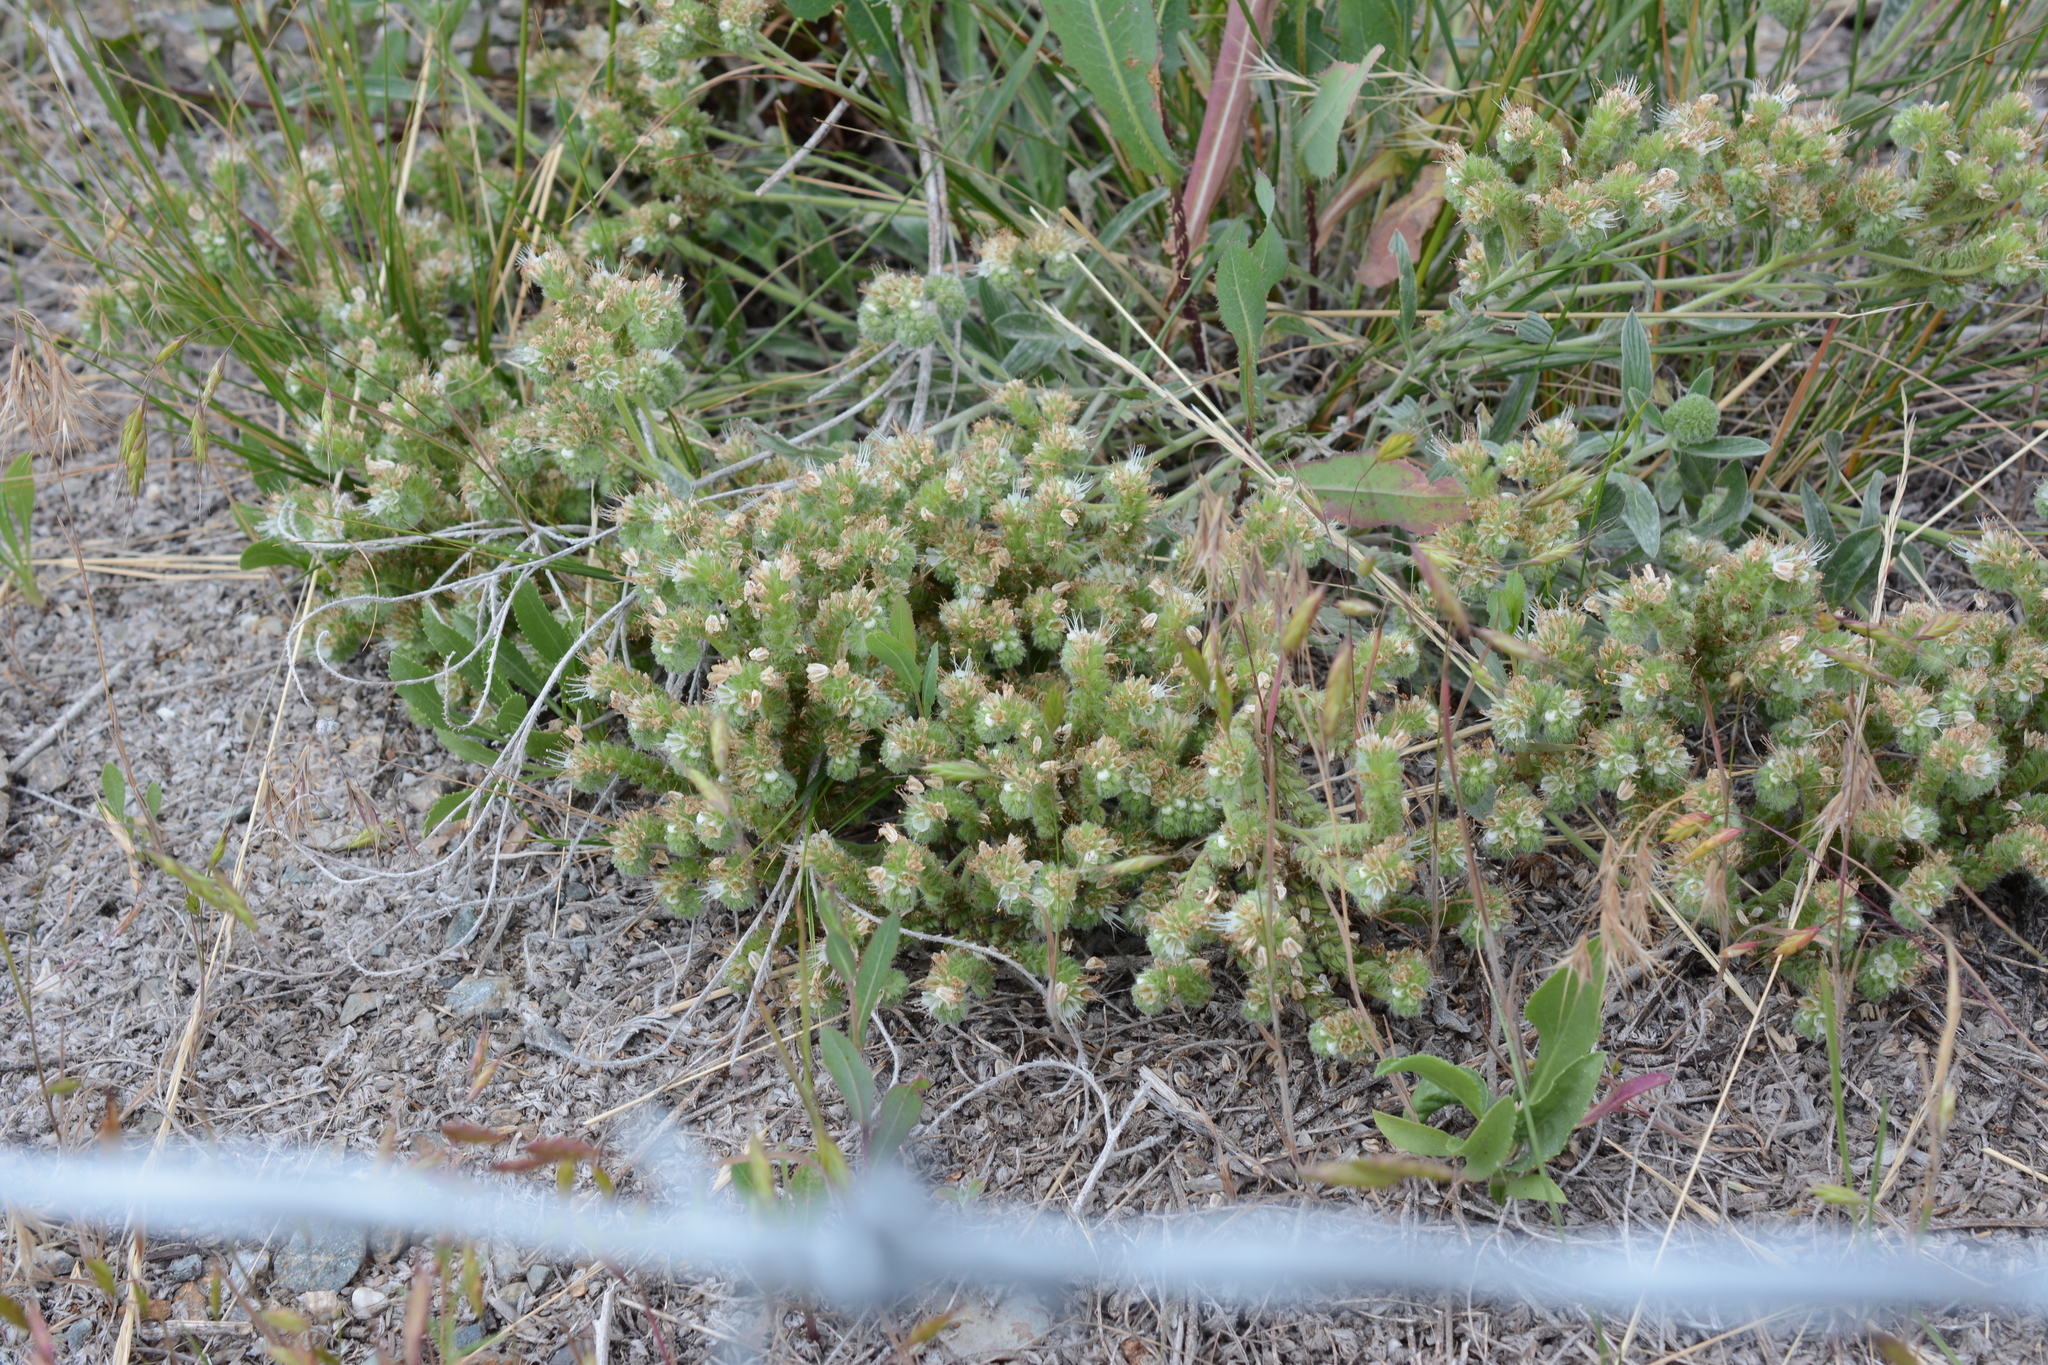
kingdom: Plantae
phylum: Tracheophyta
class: Magnoliopsida
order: Boraginales
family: Hydrophyllaceae
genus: Phacelia
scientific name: Phacelia hastata
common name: Silver-leaved phacelia
